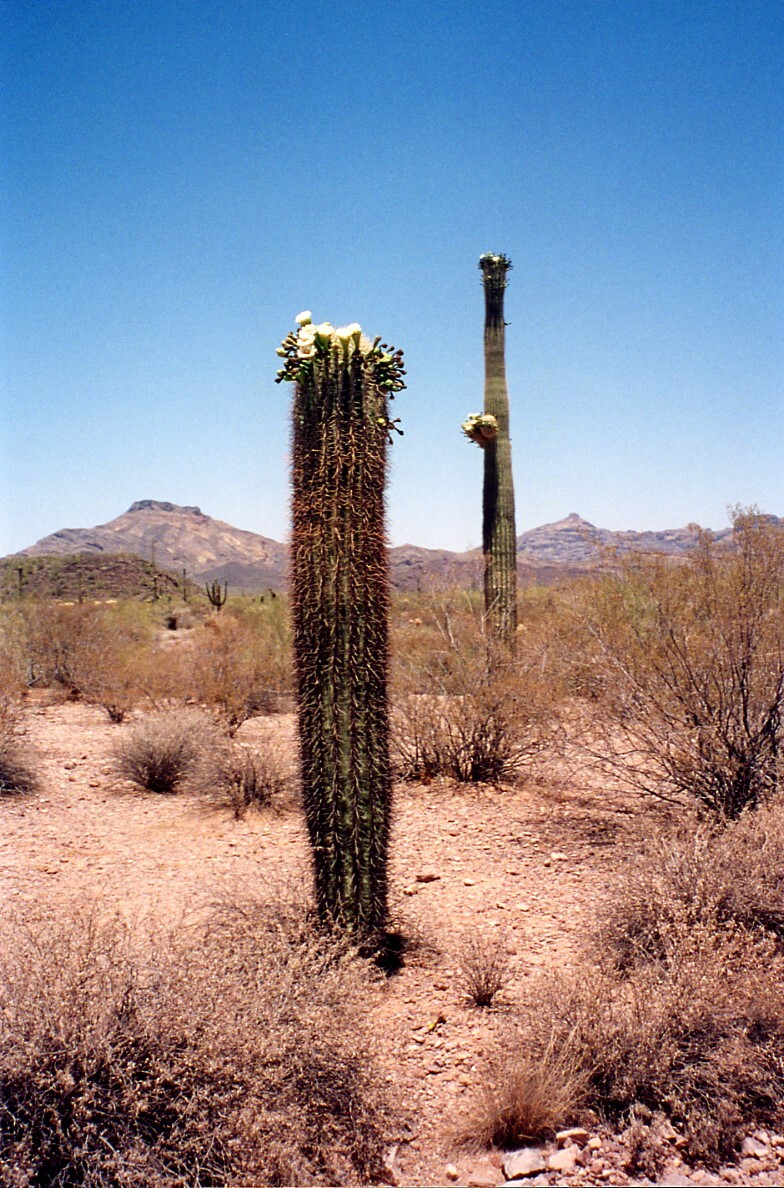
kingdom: Plantae
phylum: Tracheophyta
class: Magnoliopsida
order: Caryophyllales
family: Cactaceae
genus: Carnegiea
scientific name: Carnegiea gigantea
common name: Saguaro
